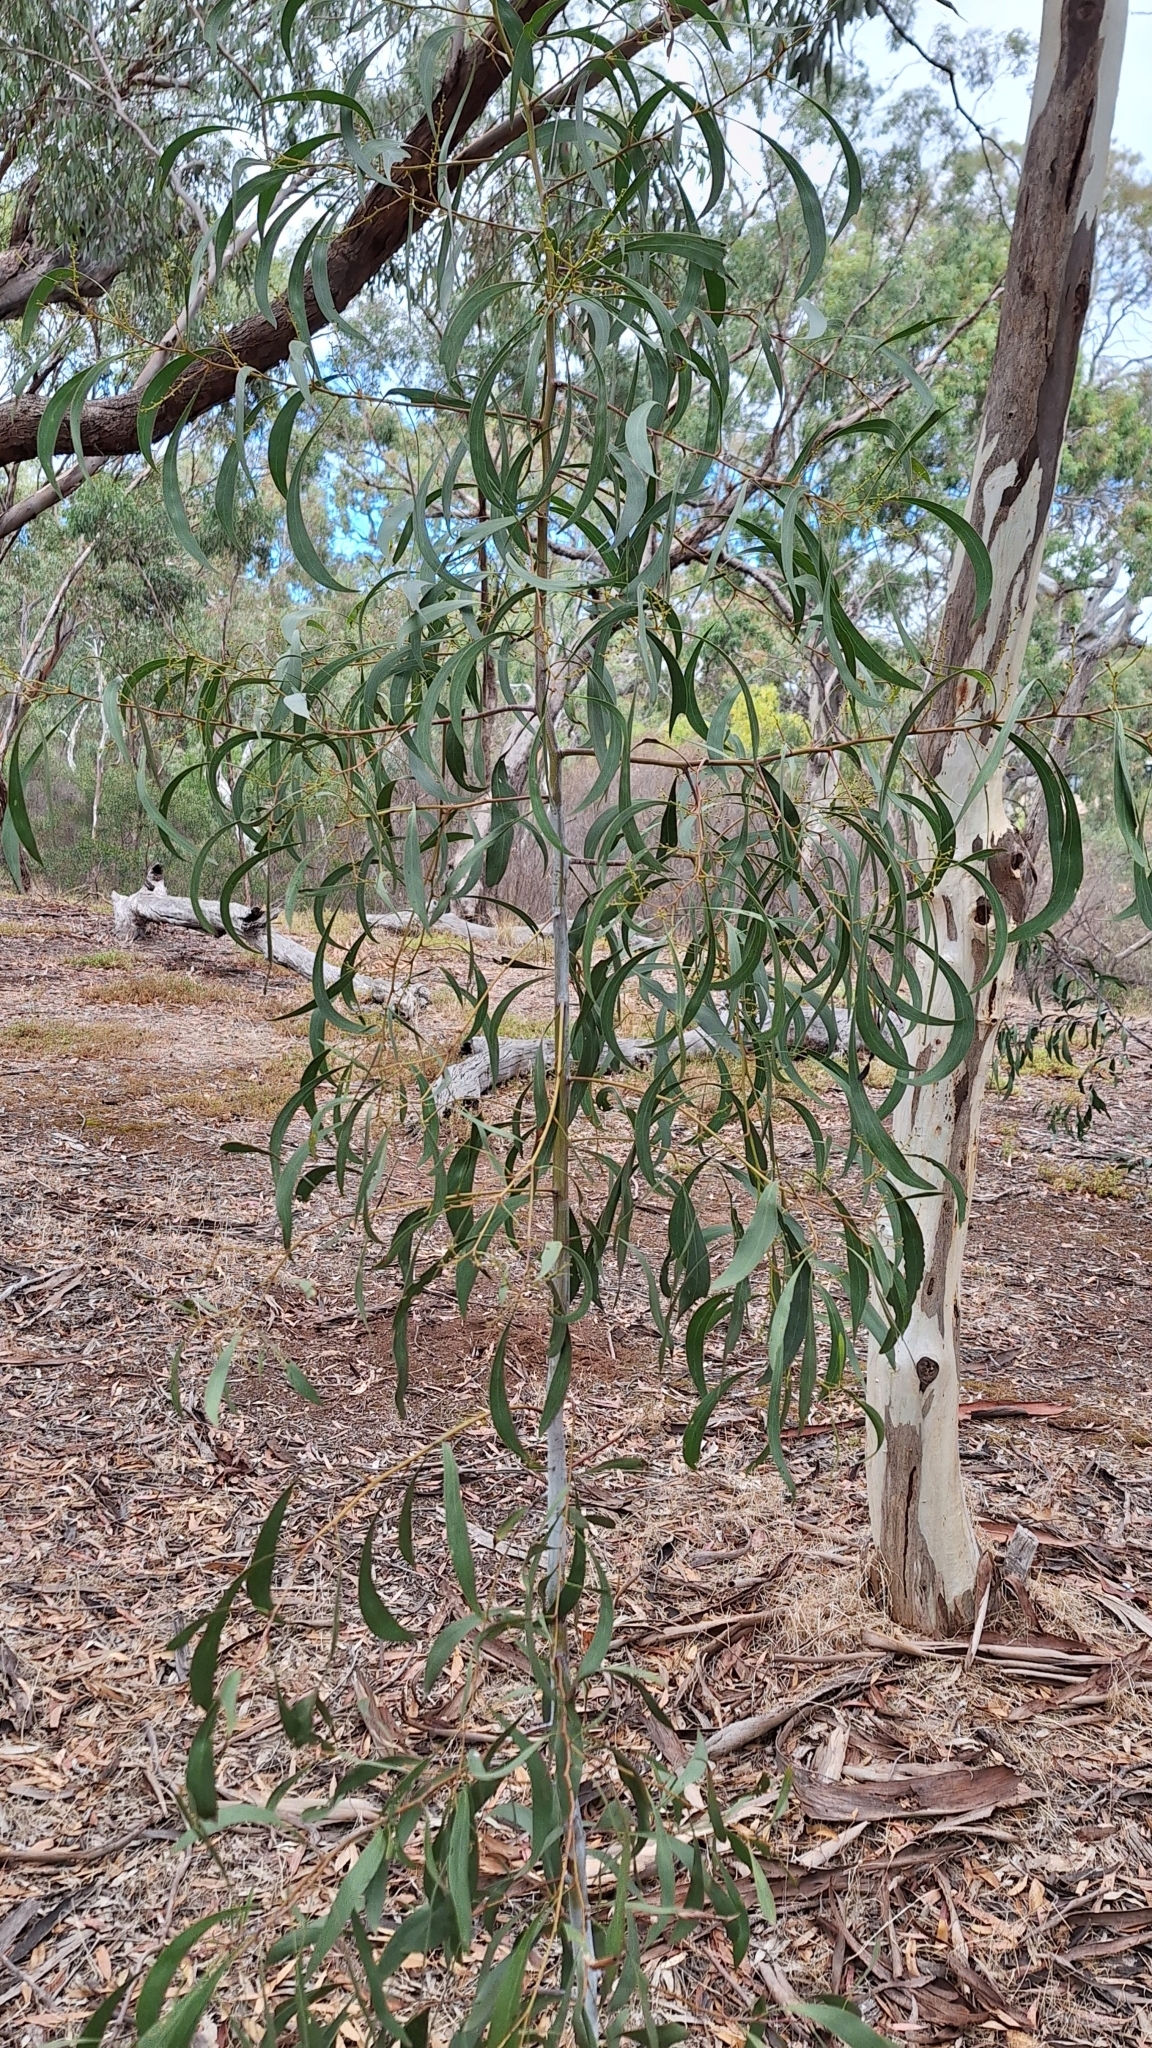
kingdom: Plantae
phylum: Tracheophyta
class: Magnoliopsida
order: Fabales
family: Fabaceae
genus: Acacia
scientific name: Acacia pycnantha
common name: Golden wattle
